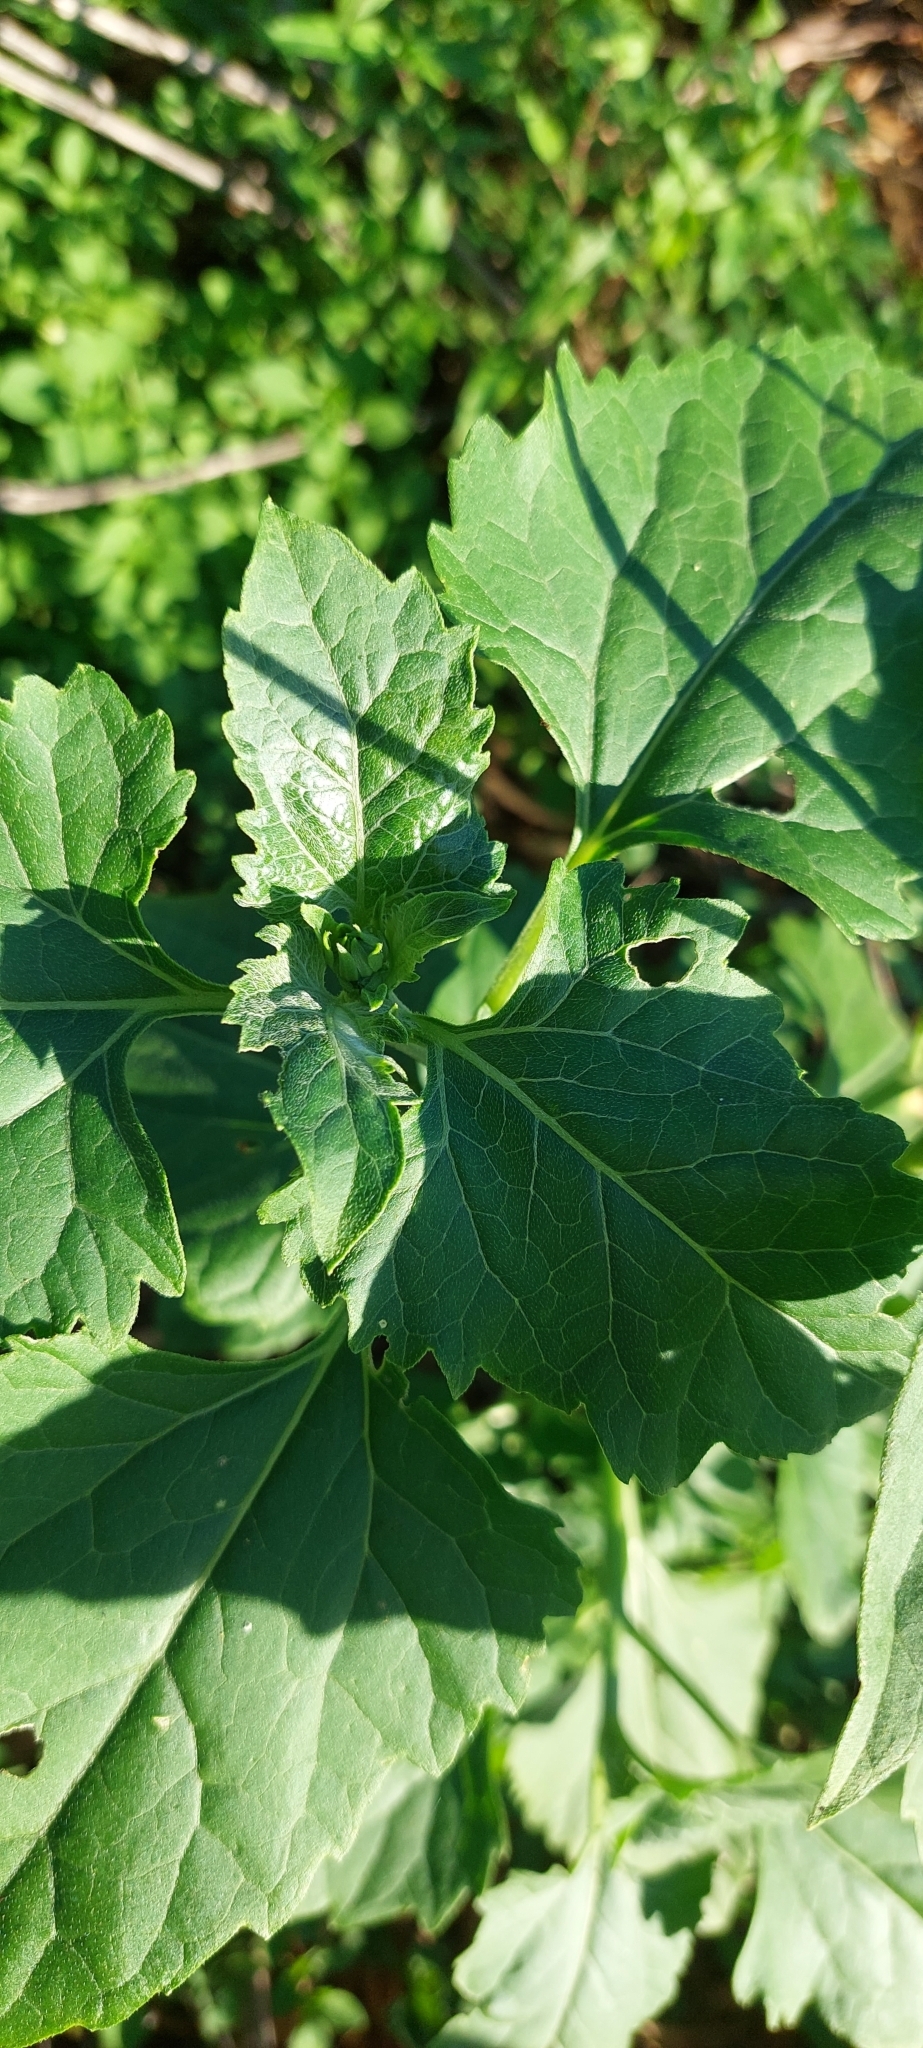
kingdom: Plantae
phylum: Tracheophyta
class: Magnoliopsida
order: Asterales
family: Asteraceae
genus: Verbesina
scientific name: Verbesina encelioides
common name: Golden crownbeard
